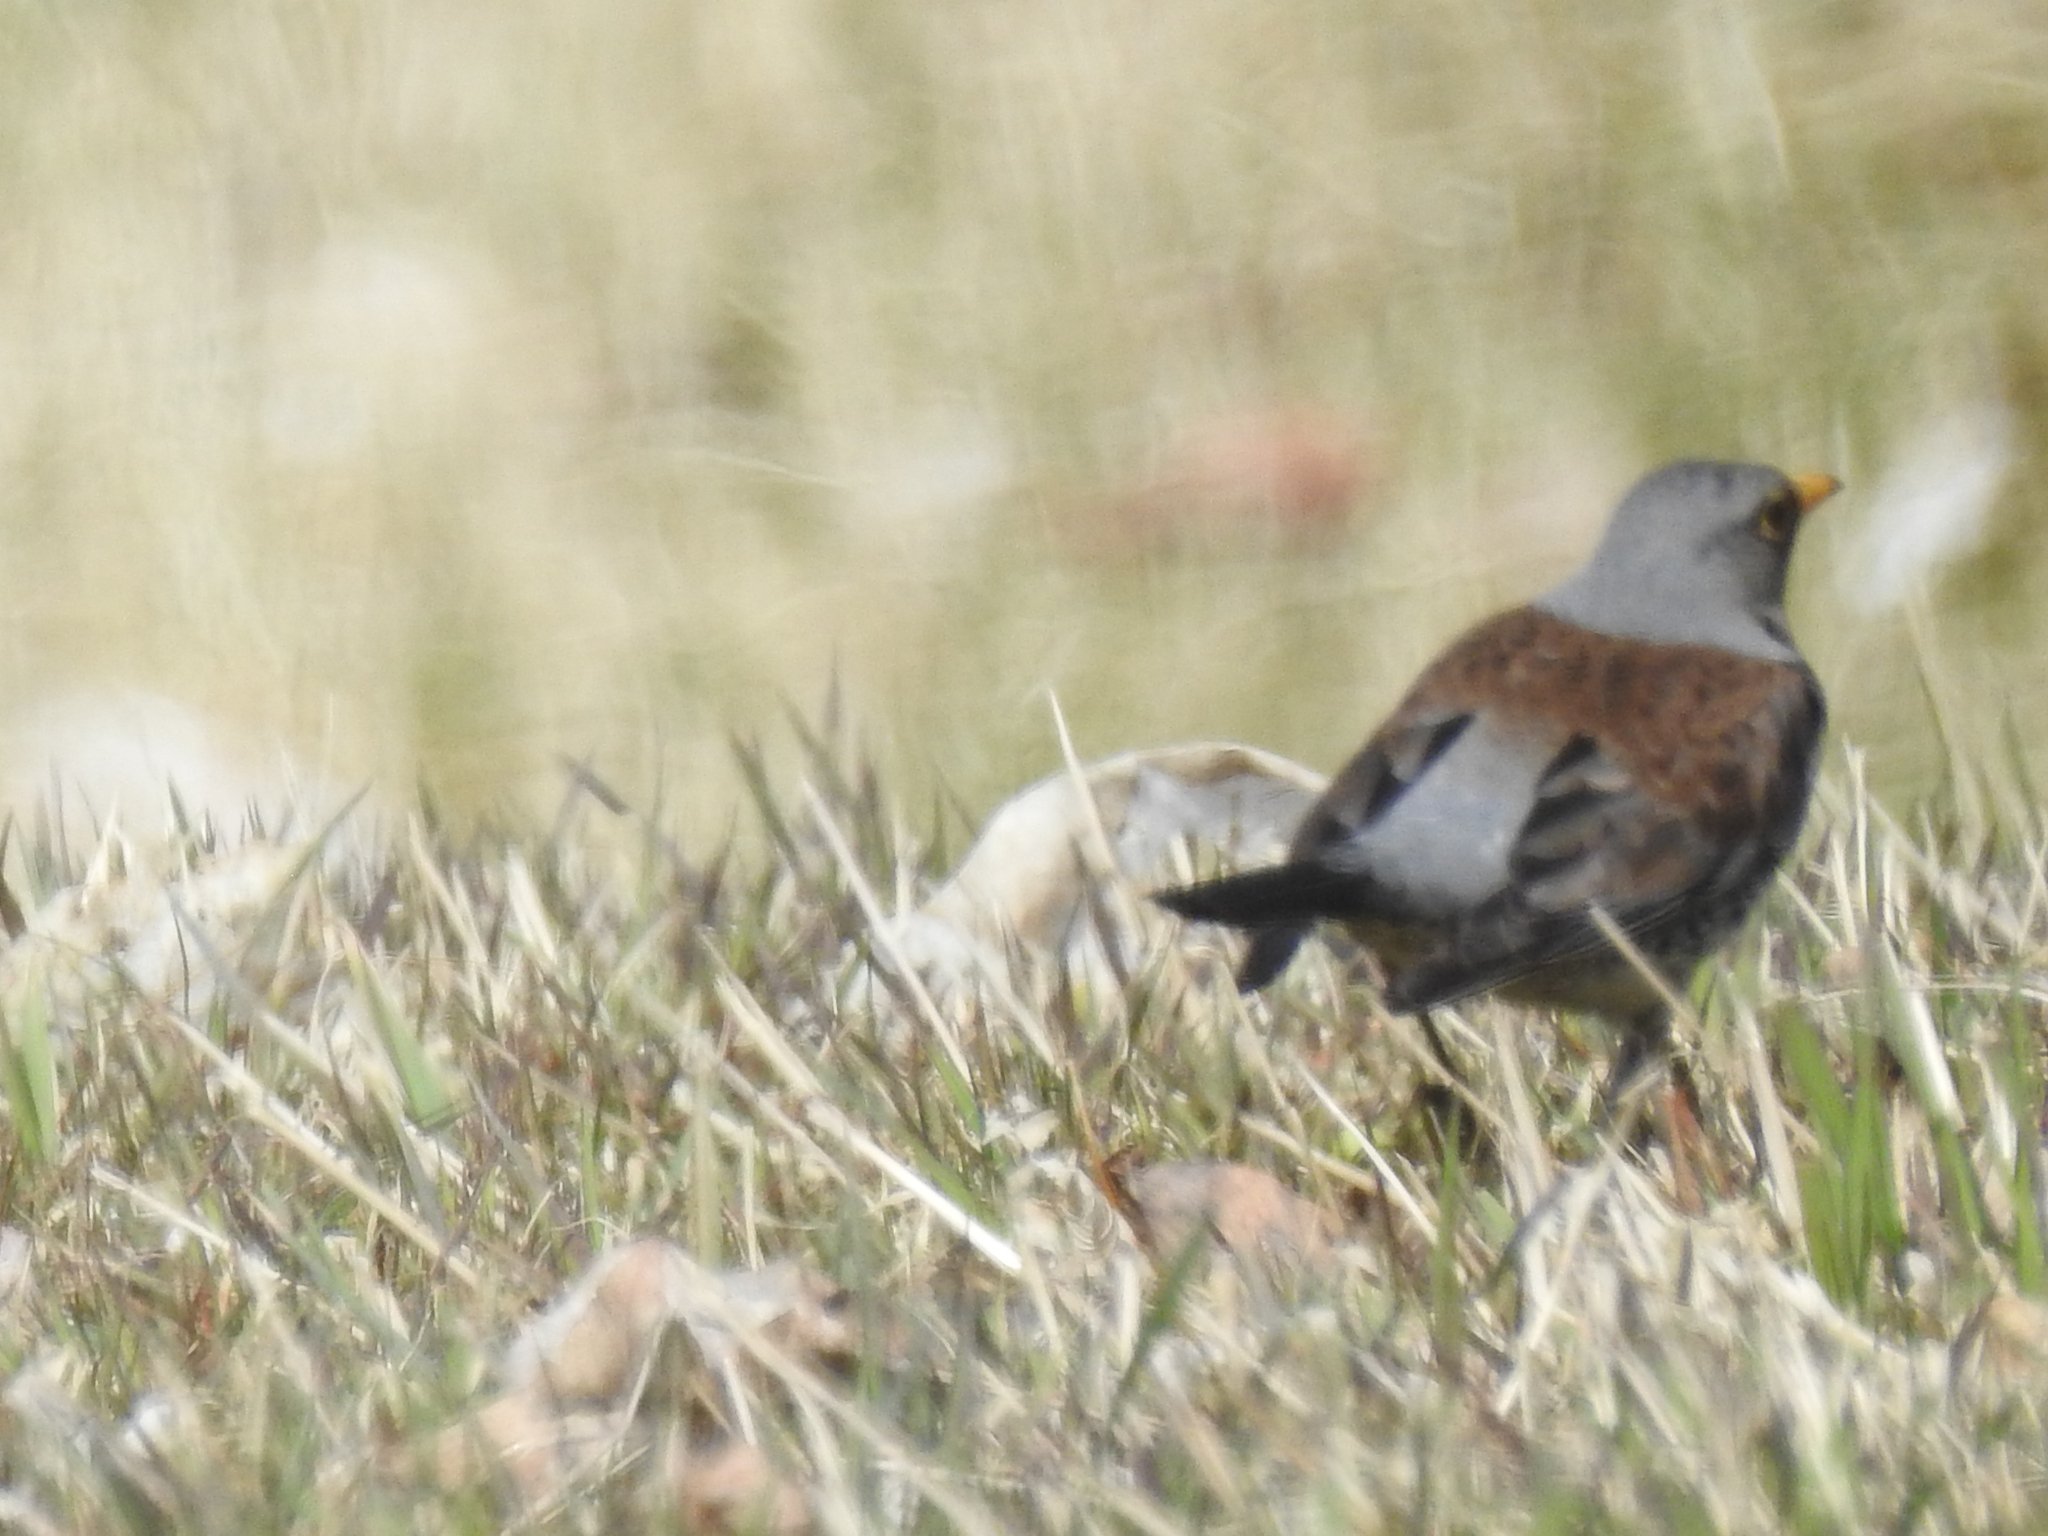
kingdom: Animalia
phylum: Chordata
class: Aves
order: Passeriformes
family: Turdidae
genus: Turdus
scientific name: Turdus pilaris
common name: Fieldfare
